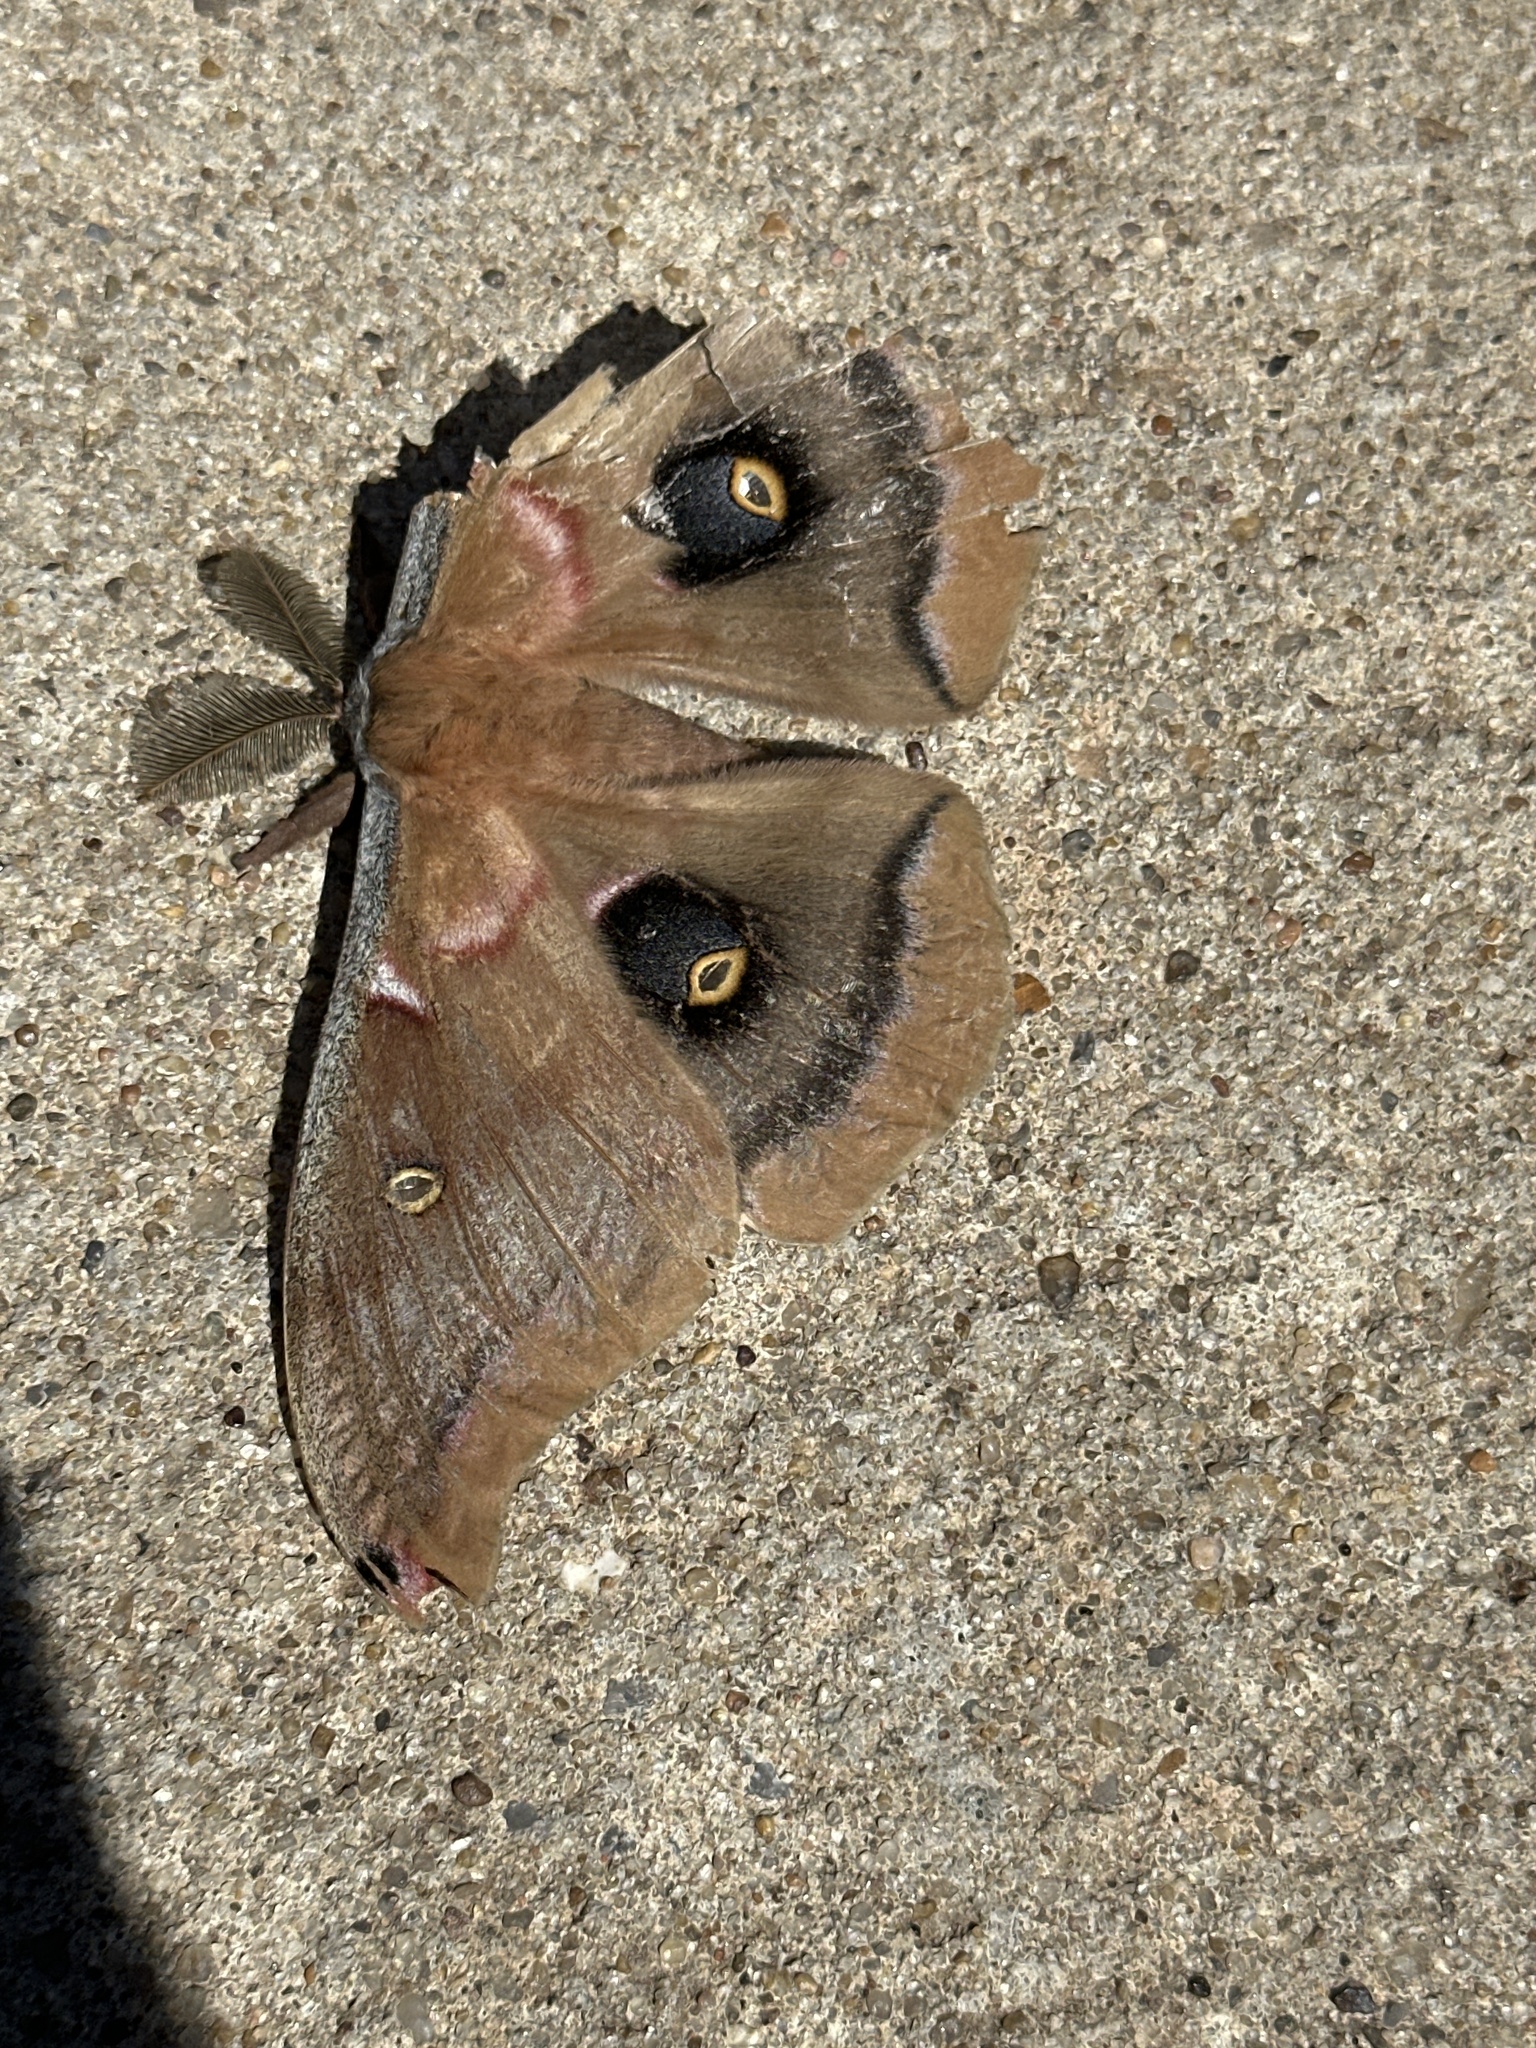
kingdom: Animalia
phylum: Arthropoda
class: Insecta
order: Lepidoptera
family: Saturniidae
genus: Antheraea
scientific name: Antheraea polyphemus
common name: Polyphemus moth
